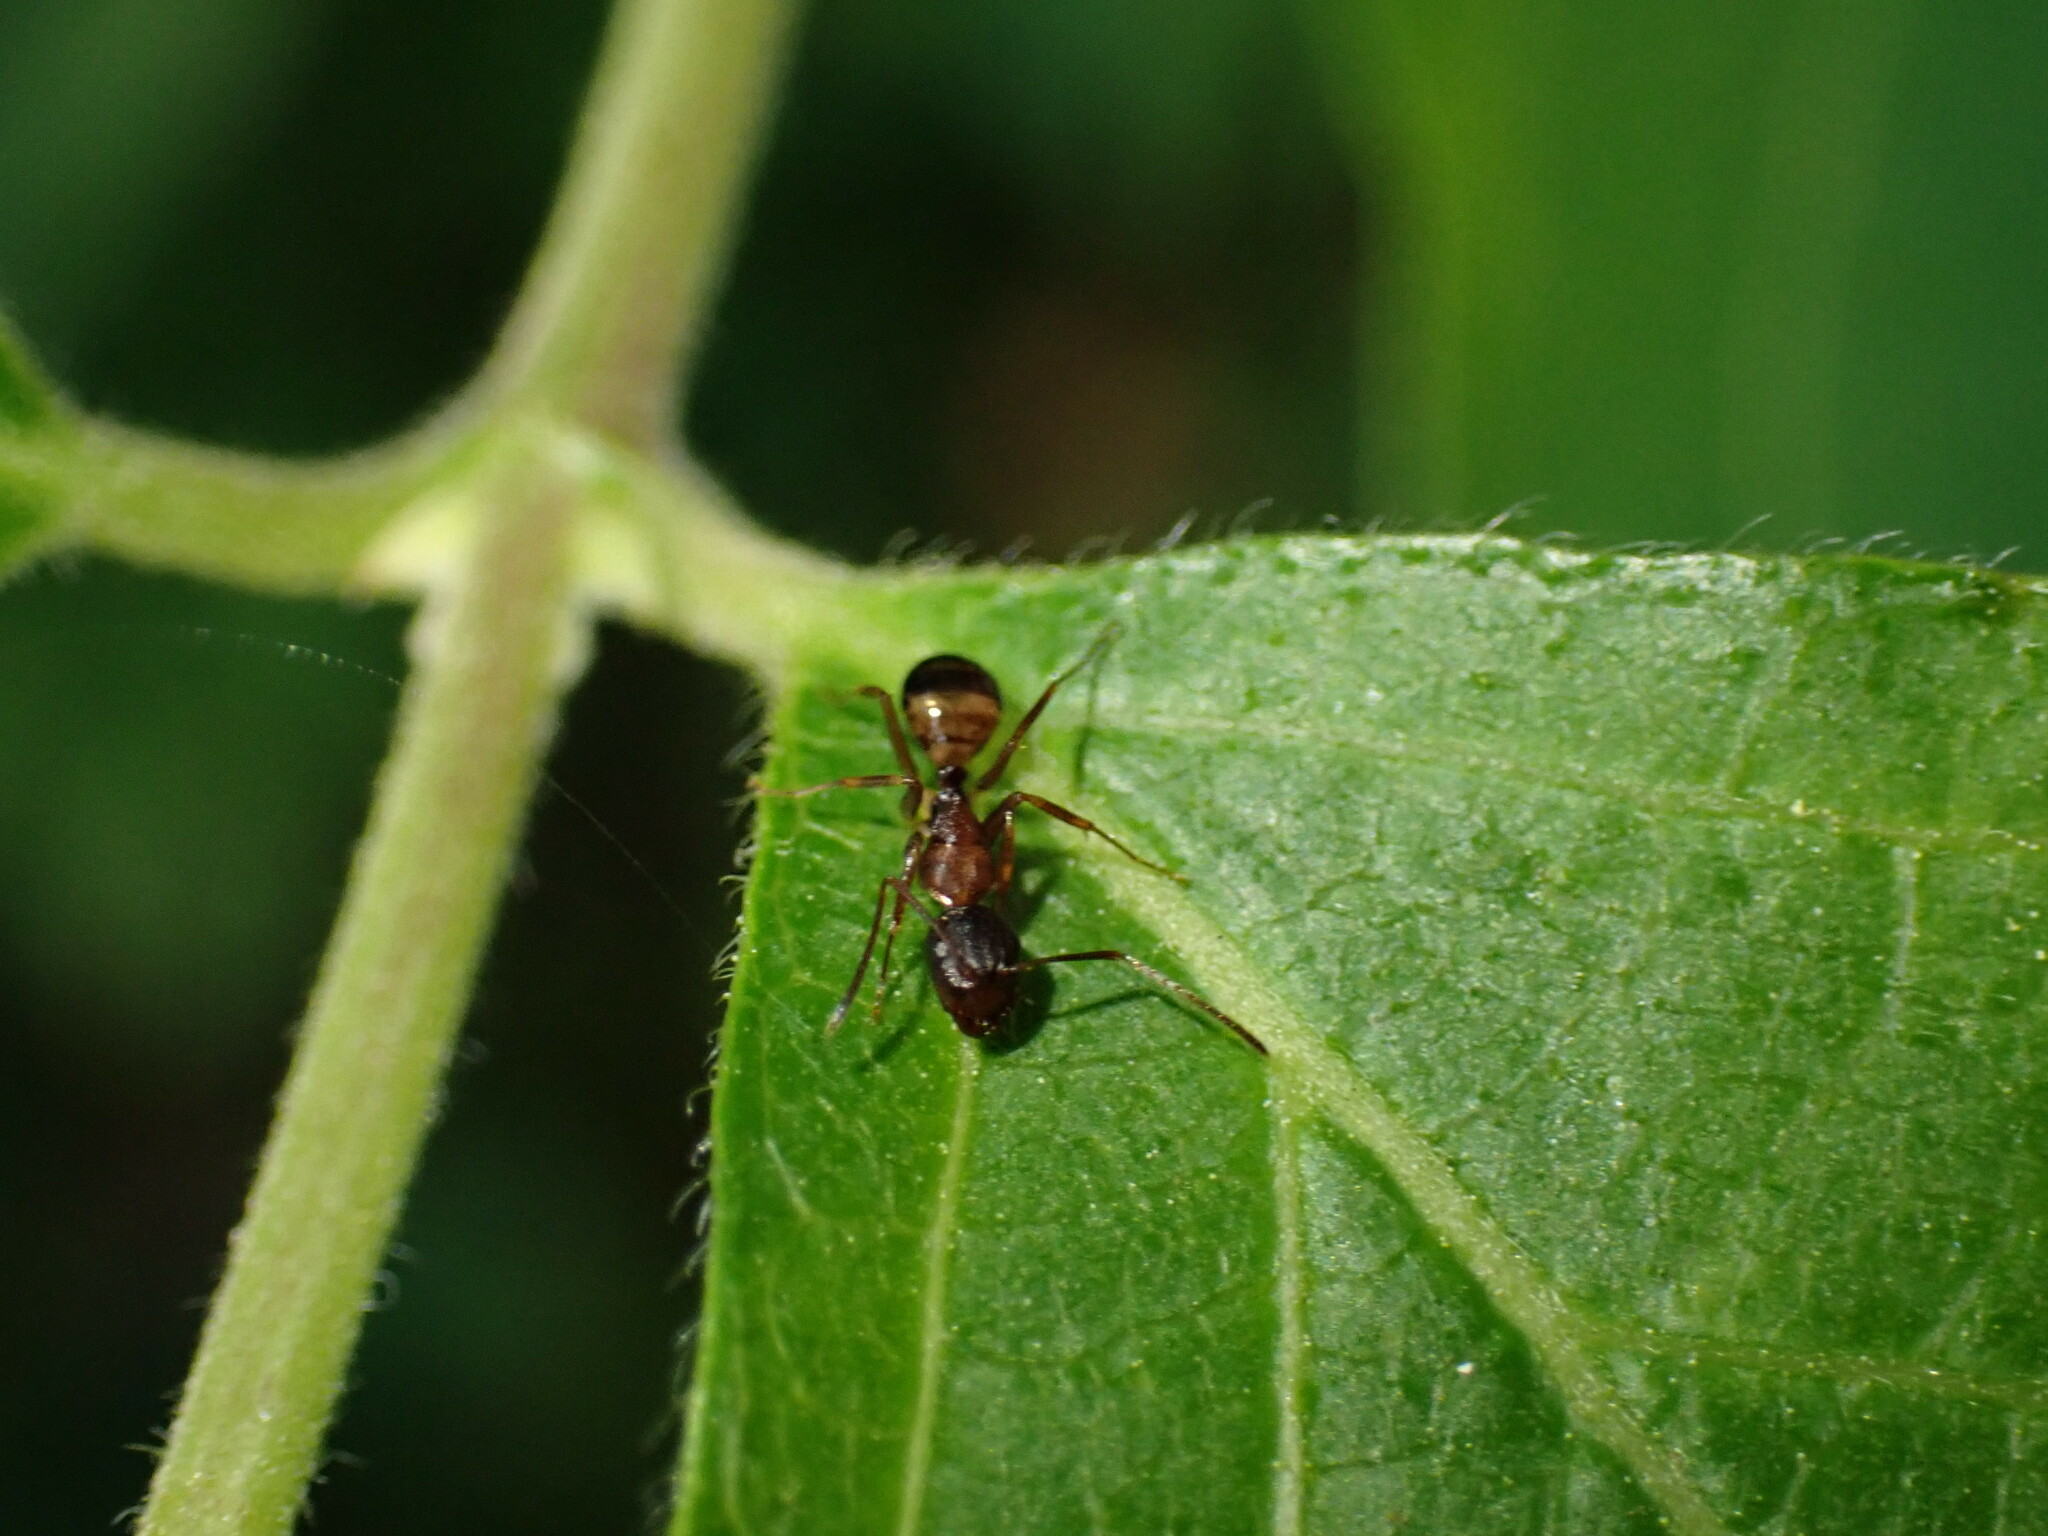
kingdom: Animalia
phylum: Arthropoda
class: Insecta
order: Hymenoptera
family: Formicidae
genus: Camponotus
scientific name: Camponotus subbarbatus
